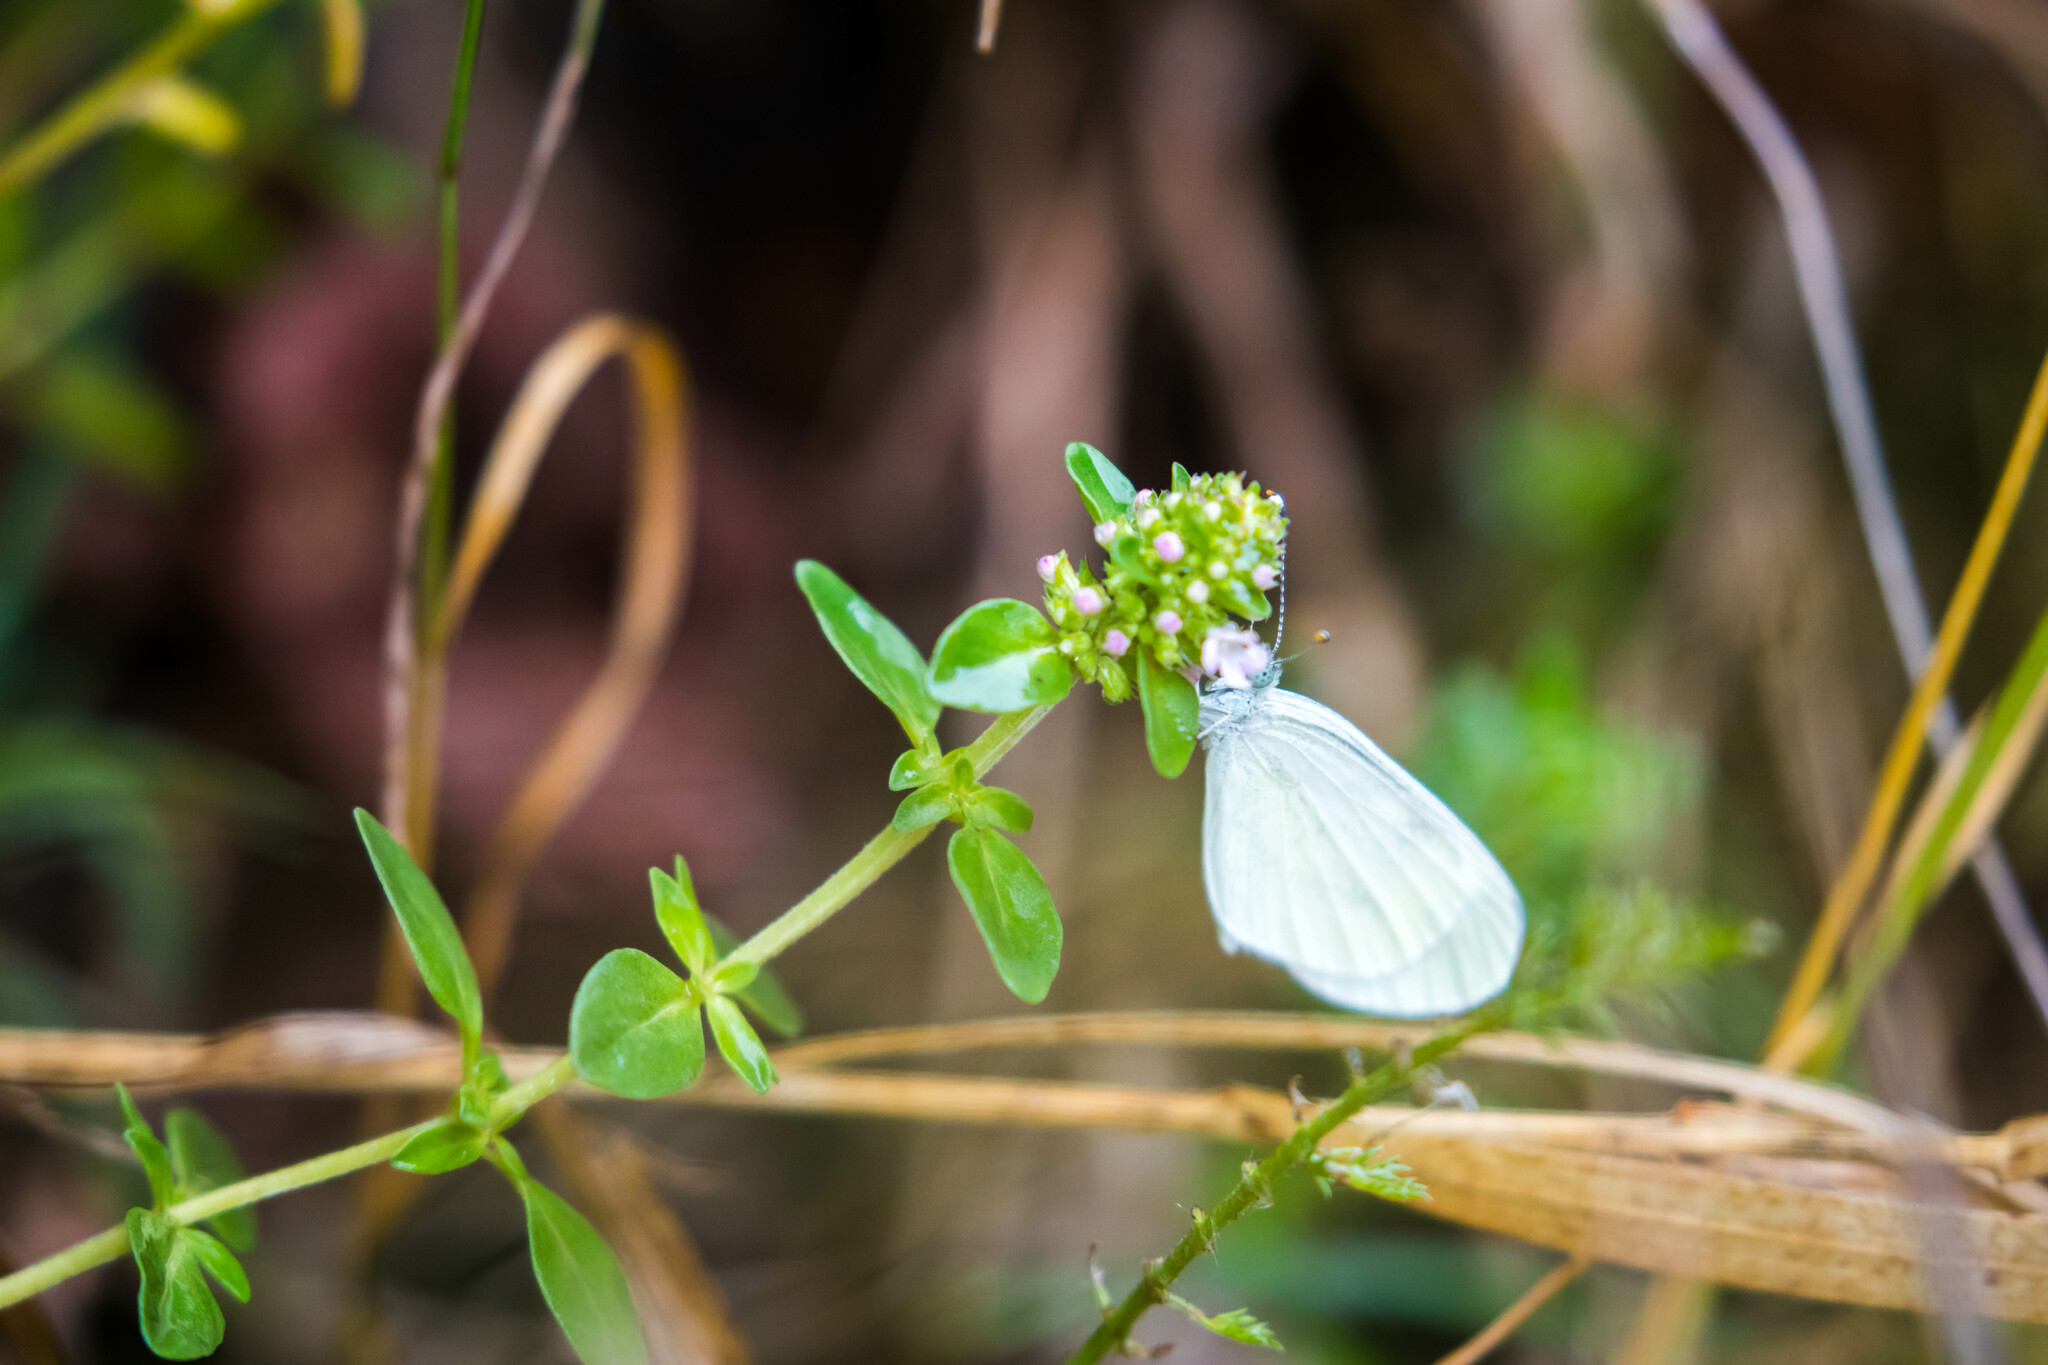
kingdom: Animalia
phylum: Arthropoda
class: Insecta
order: Lepidoptera
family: Pieridae
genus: Leptidea
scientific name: Leptidea sinapis
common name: Wood white
